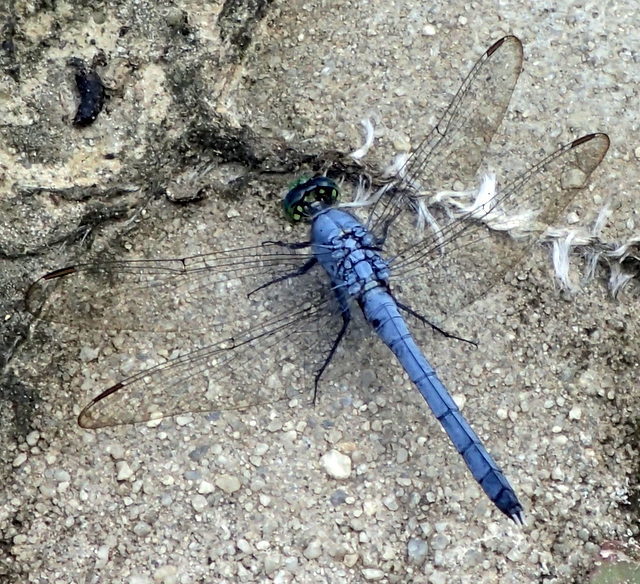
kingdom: Animalia
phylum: Arthropoda
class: Insecta
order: Odonata
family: Libellulidae
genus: Erythemis
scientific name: Erythemis simplicicollis
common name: Eastern pondhawk
